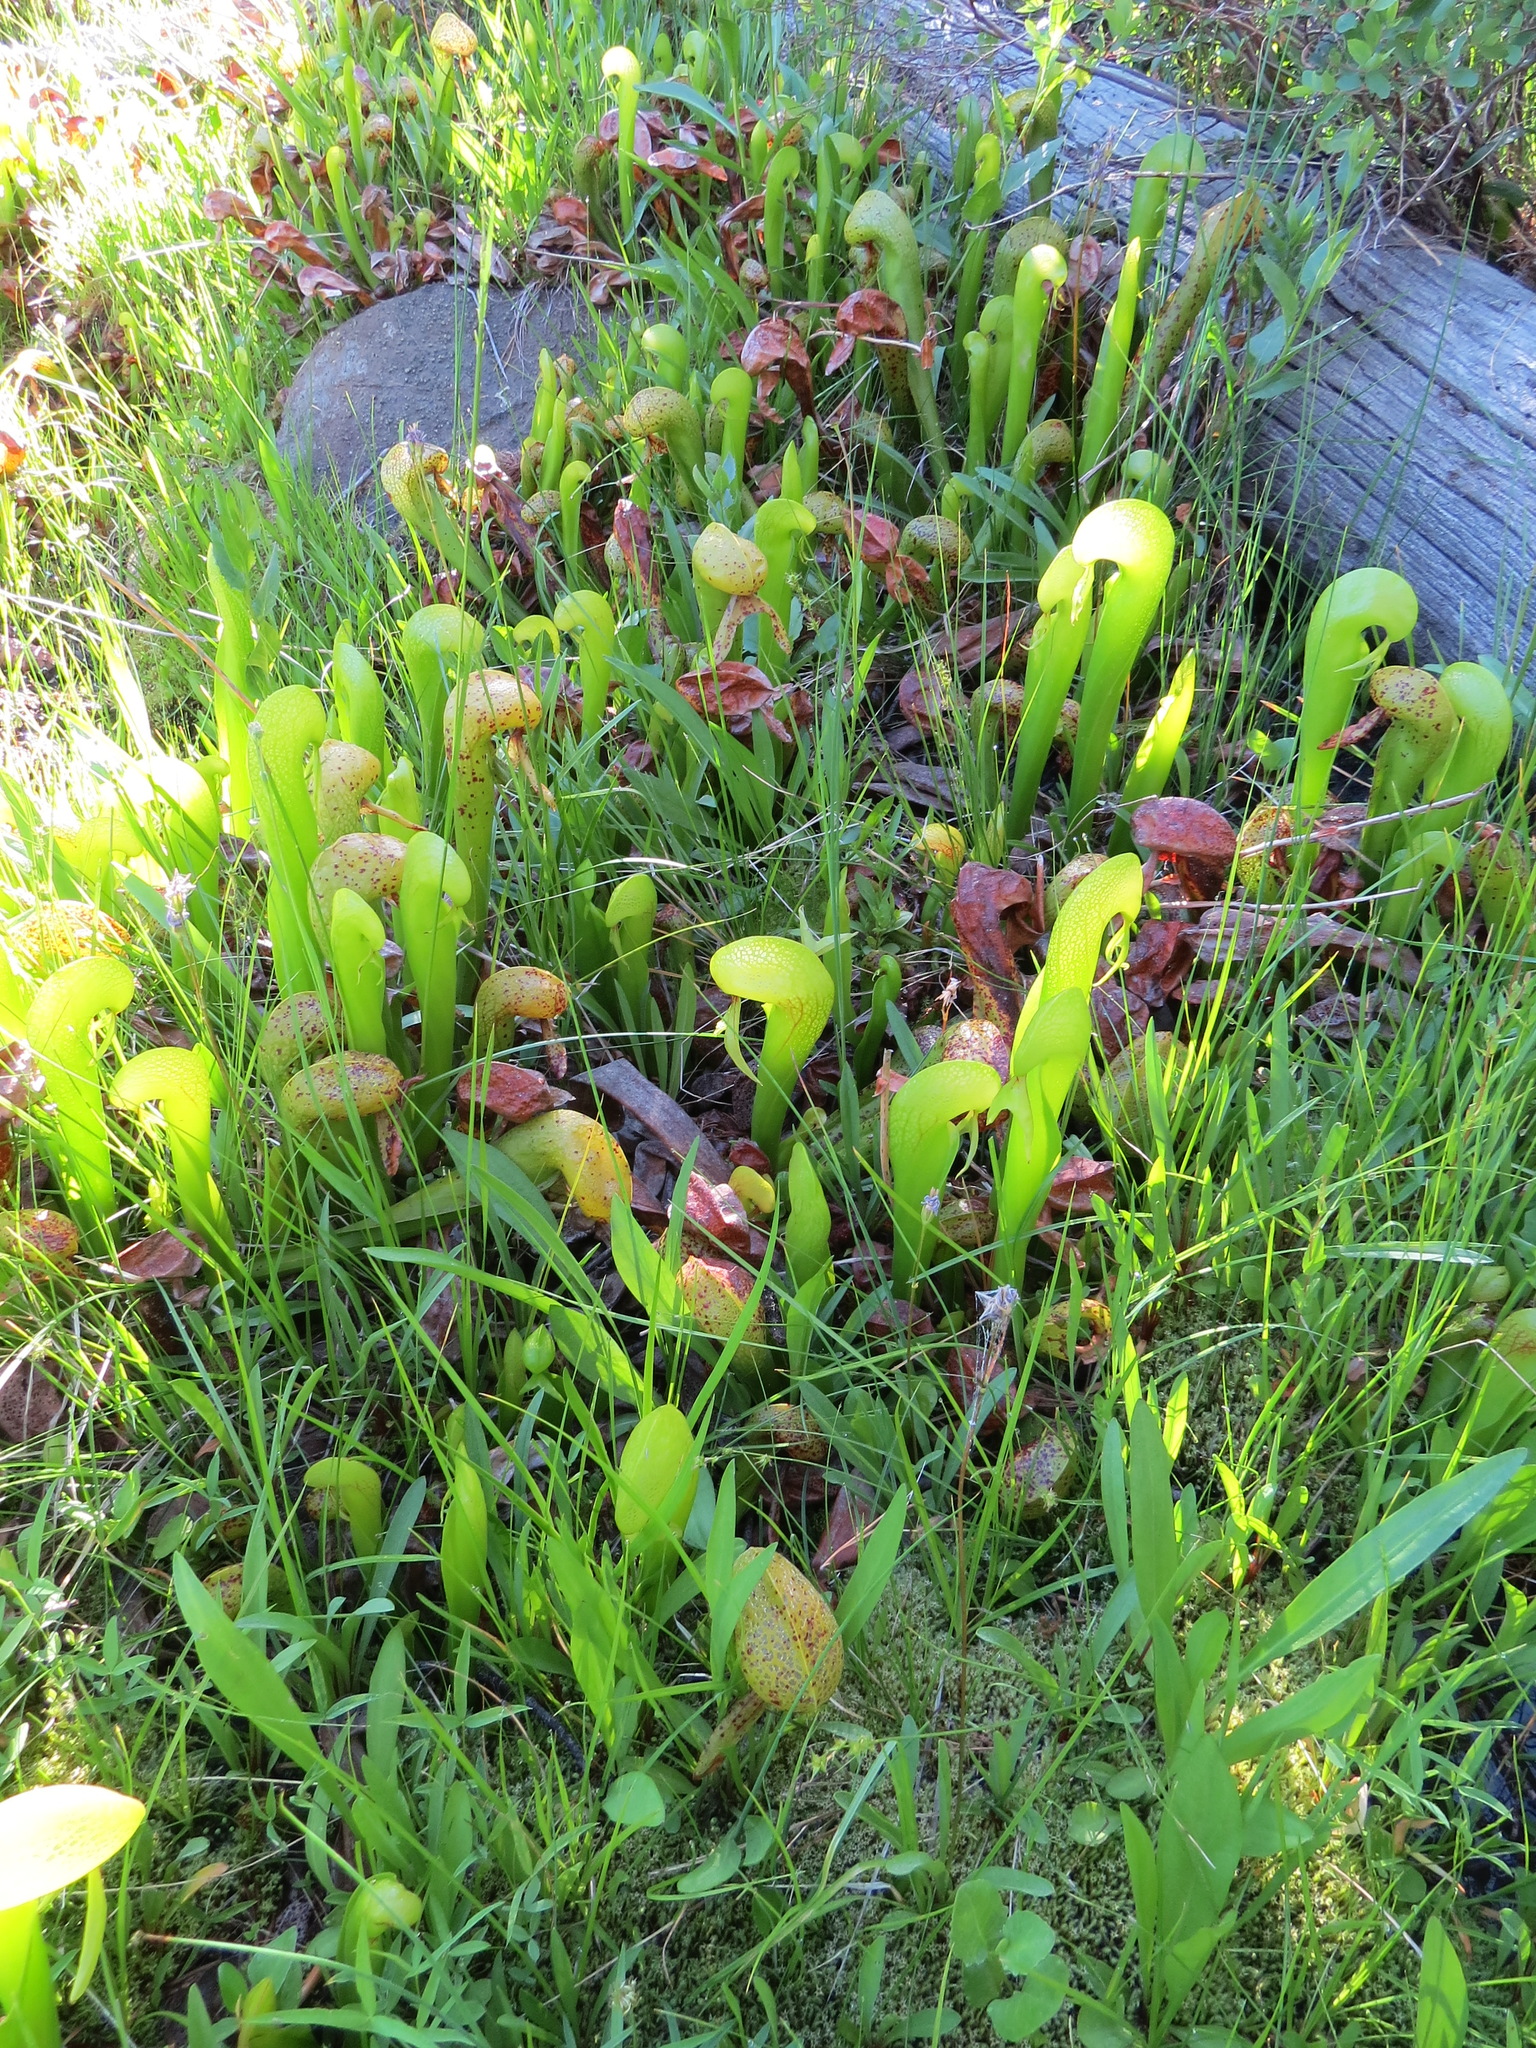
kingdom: Plantae
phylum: Tracheophyta
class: Magnoliopsida
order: Ericales
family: Sarraceniaceae
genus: Darlingtonia
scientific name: Darlingtonia californica
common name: California pitcher plant
